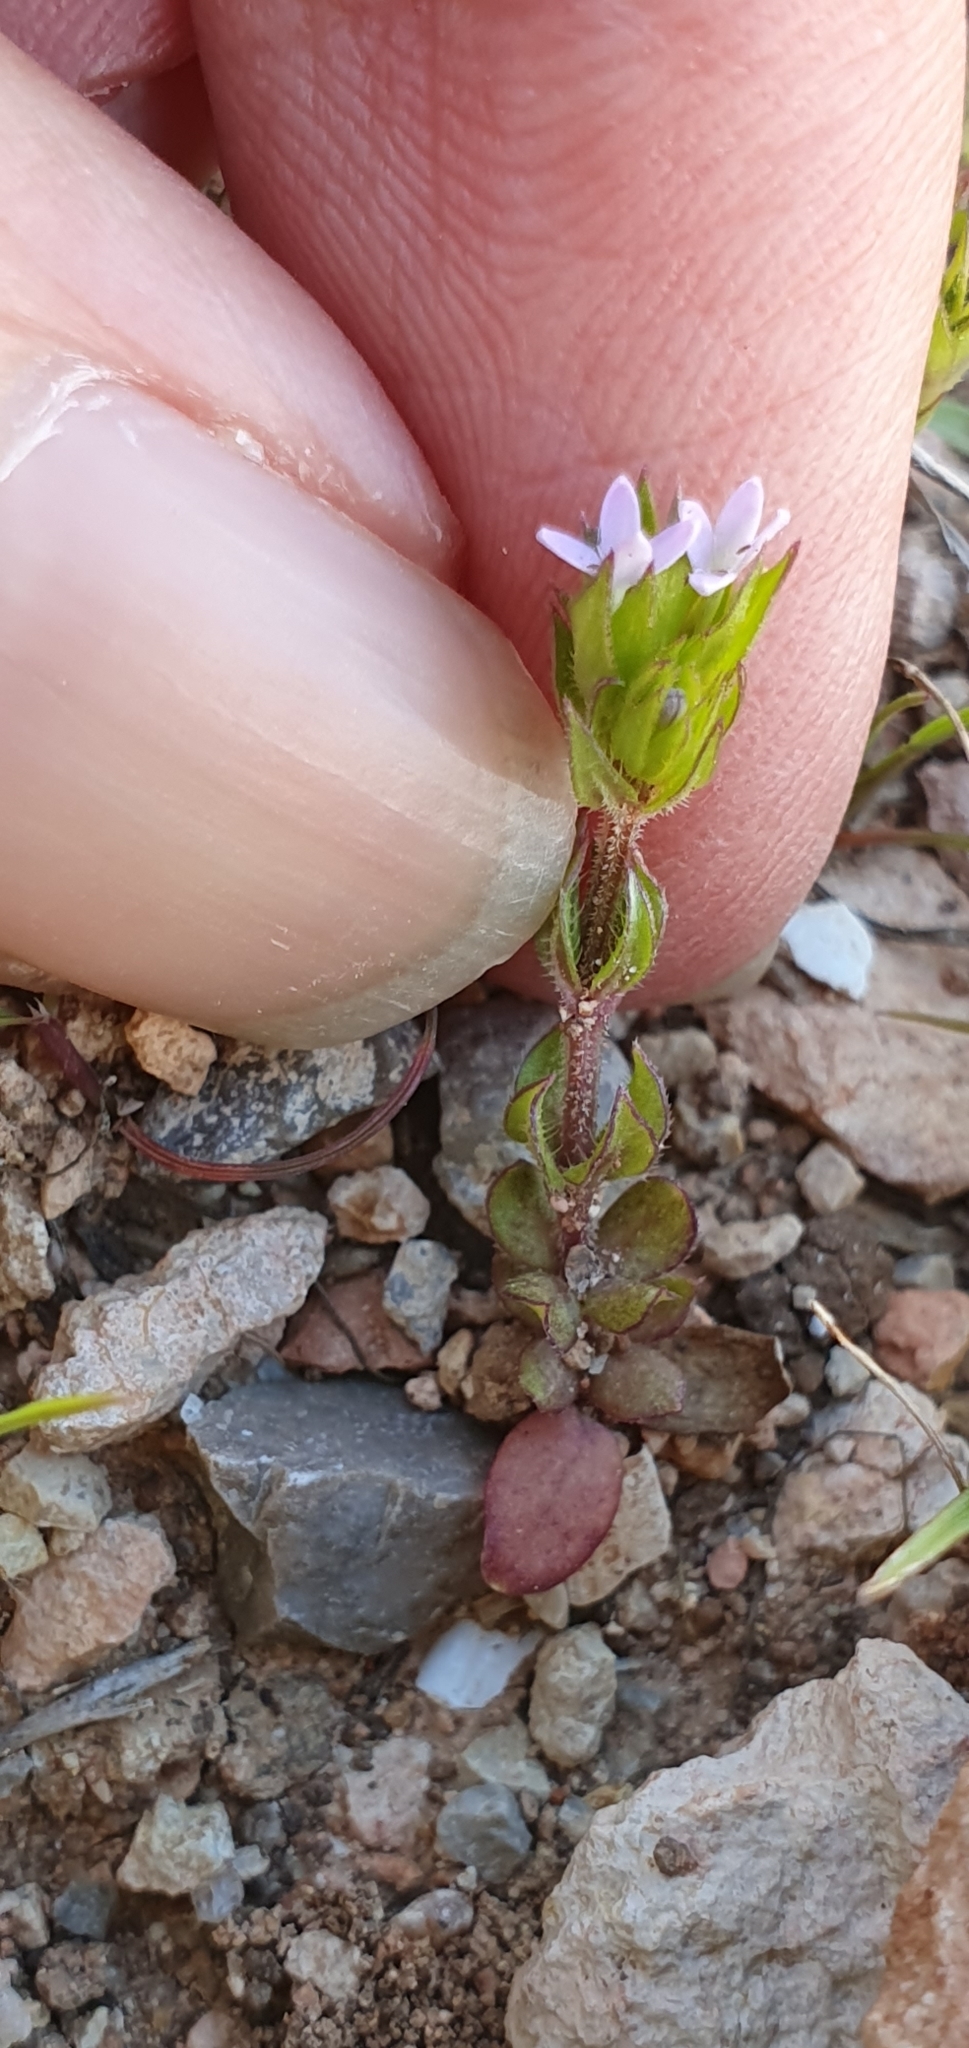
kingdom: Plantae
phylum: Tracheophyta
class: Magnoliopsida
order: Gentianales
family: Rubiaceae
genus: Sherardia
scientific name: Sherardia arvensis
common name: Field madder
